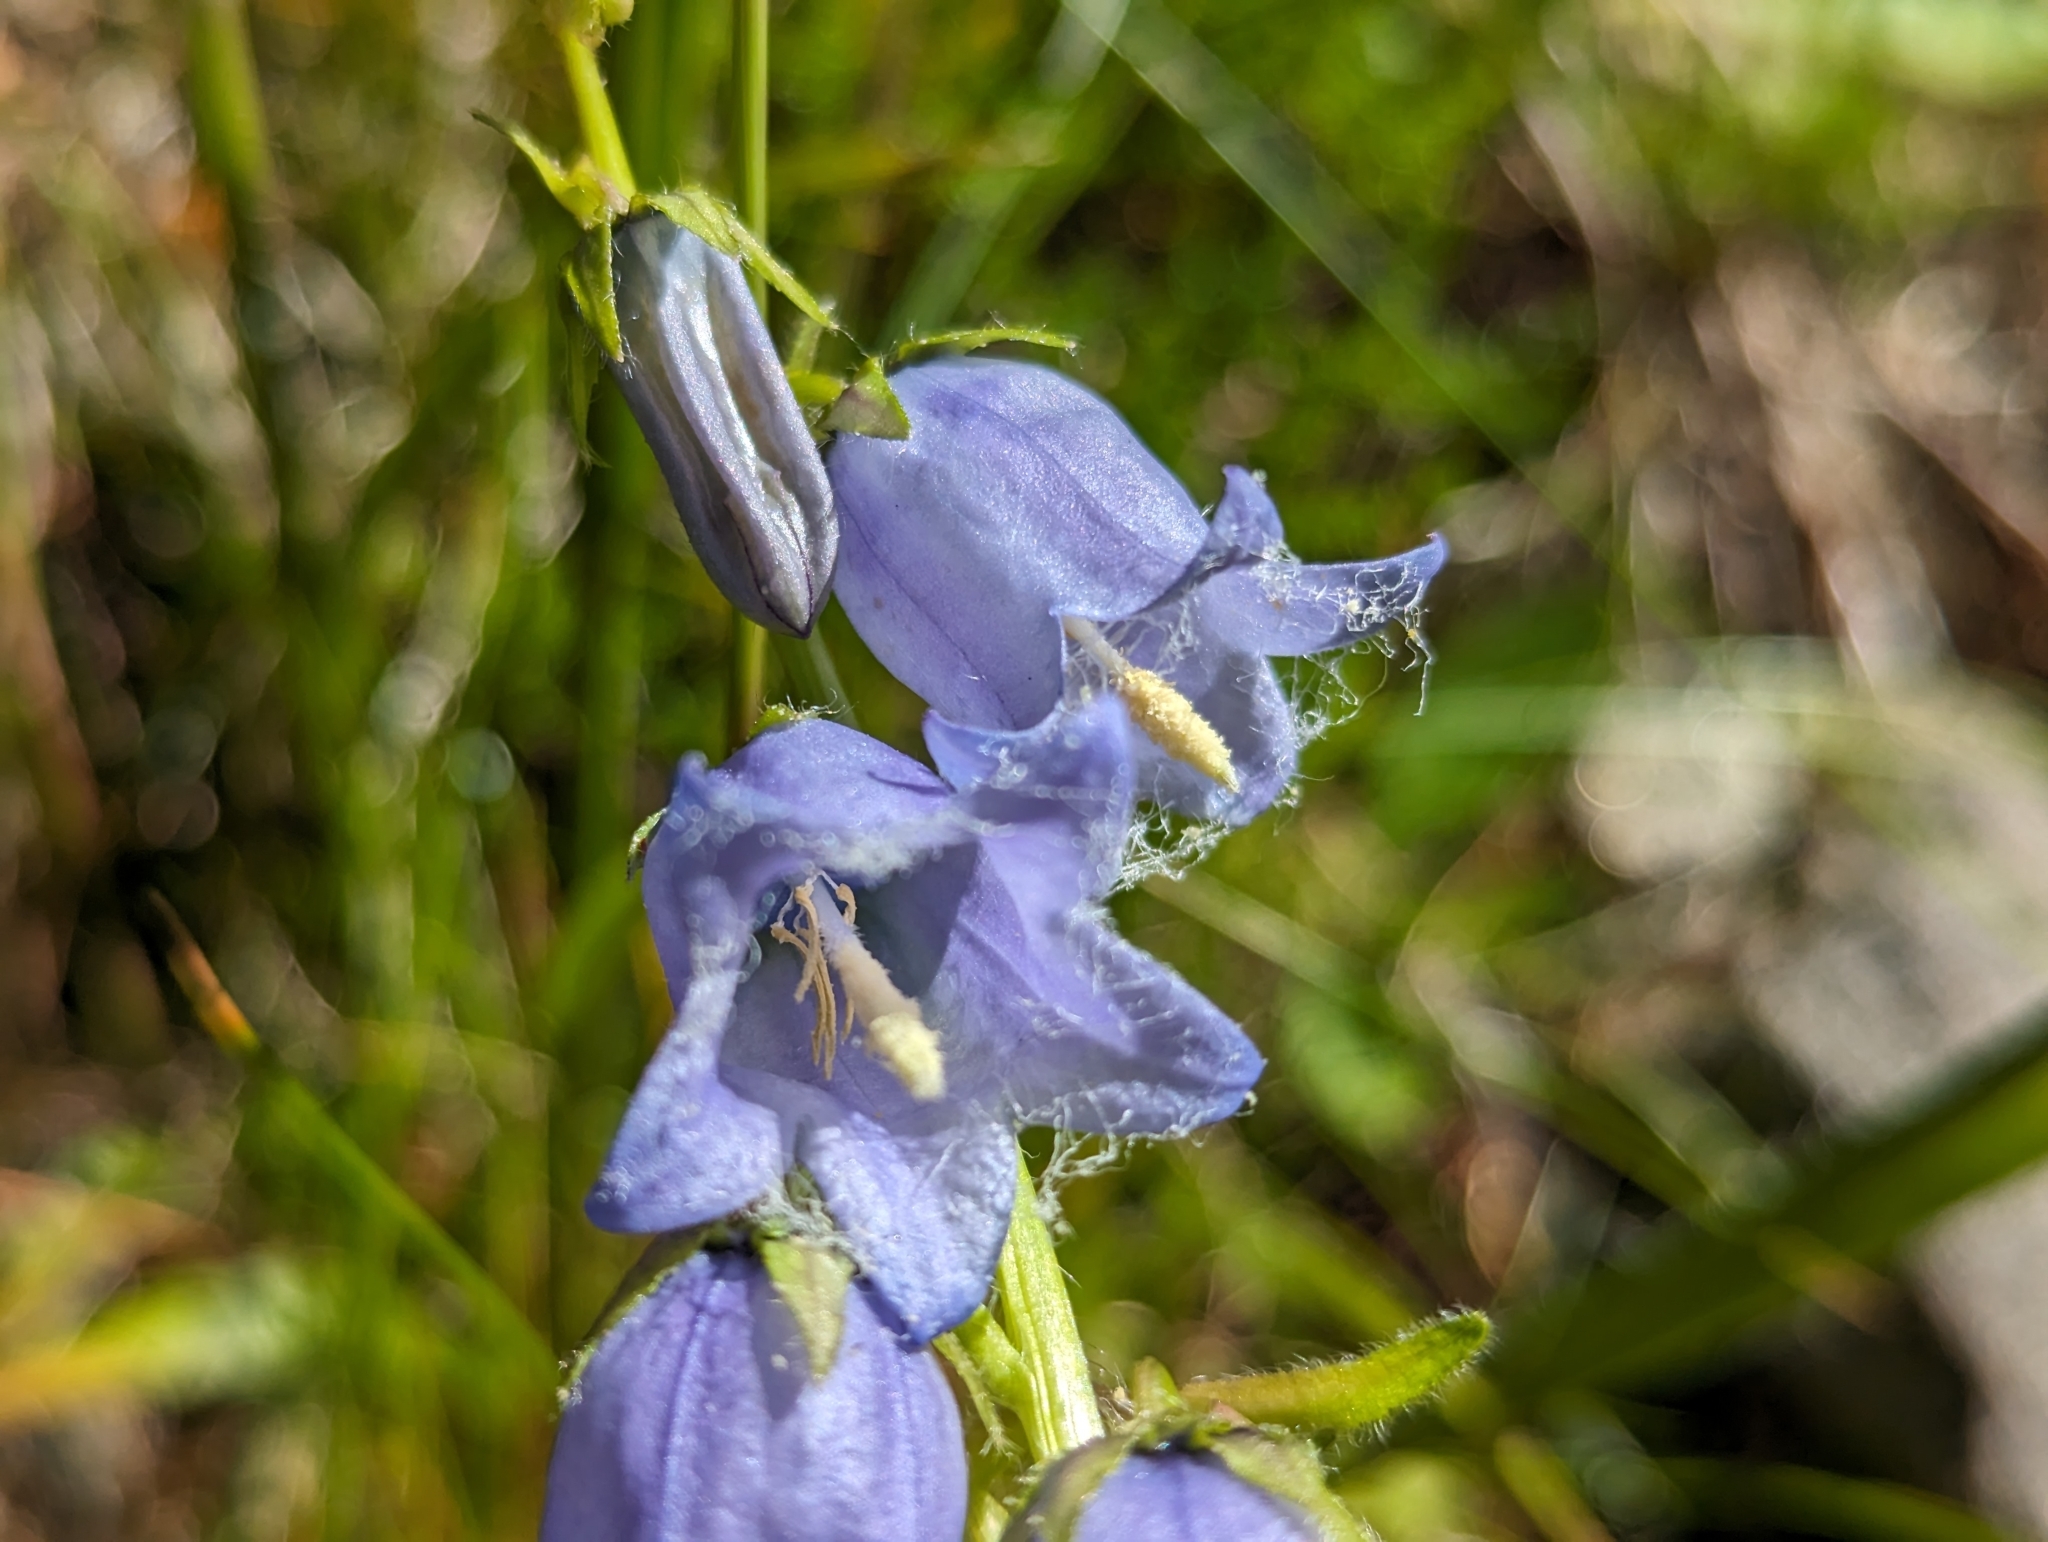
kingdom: Plantae
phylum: Tracheophyta
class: Magnoliopsida
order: Asterales
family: Campanulaceae
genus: Campanula
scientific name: Campanula barbata
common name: Bearded bellflower
